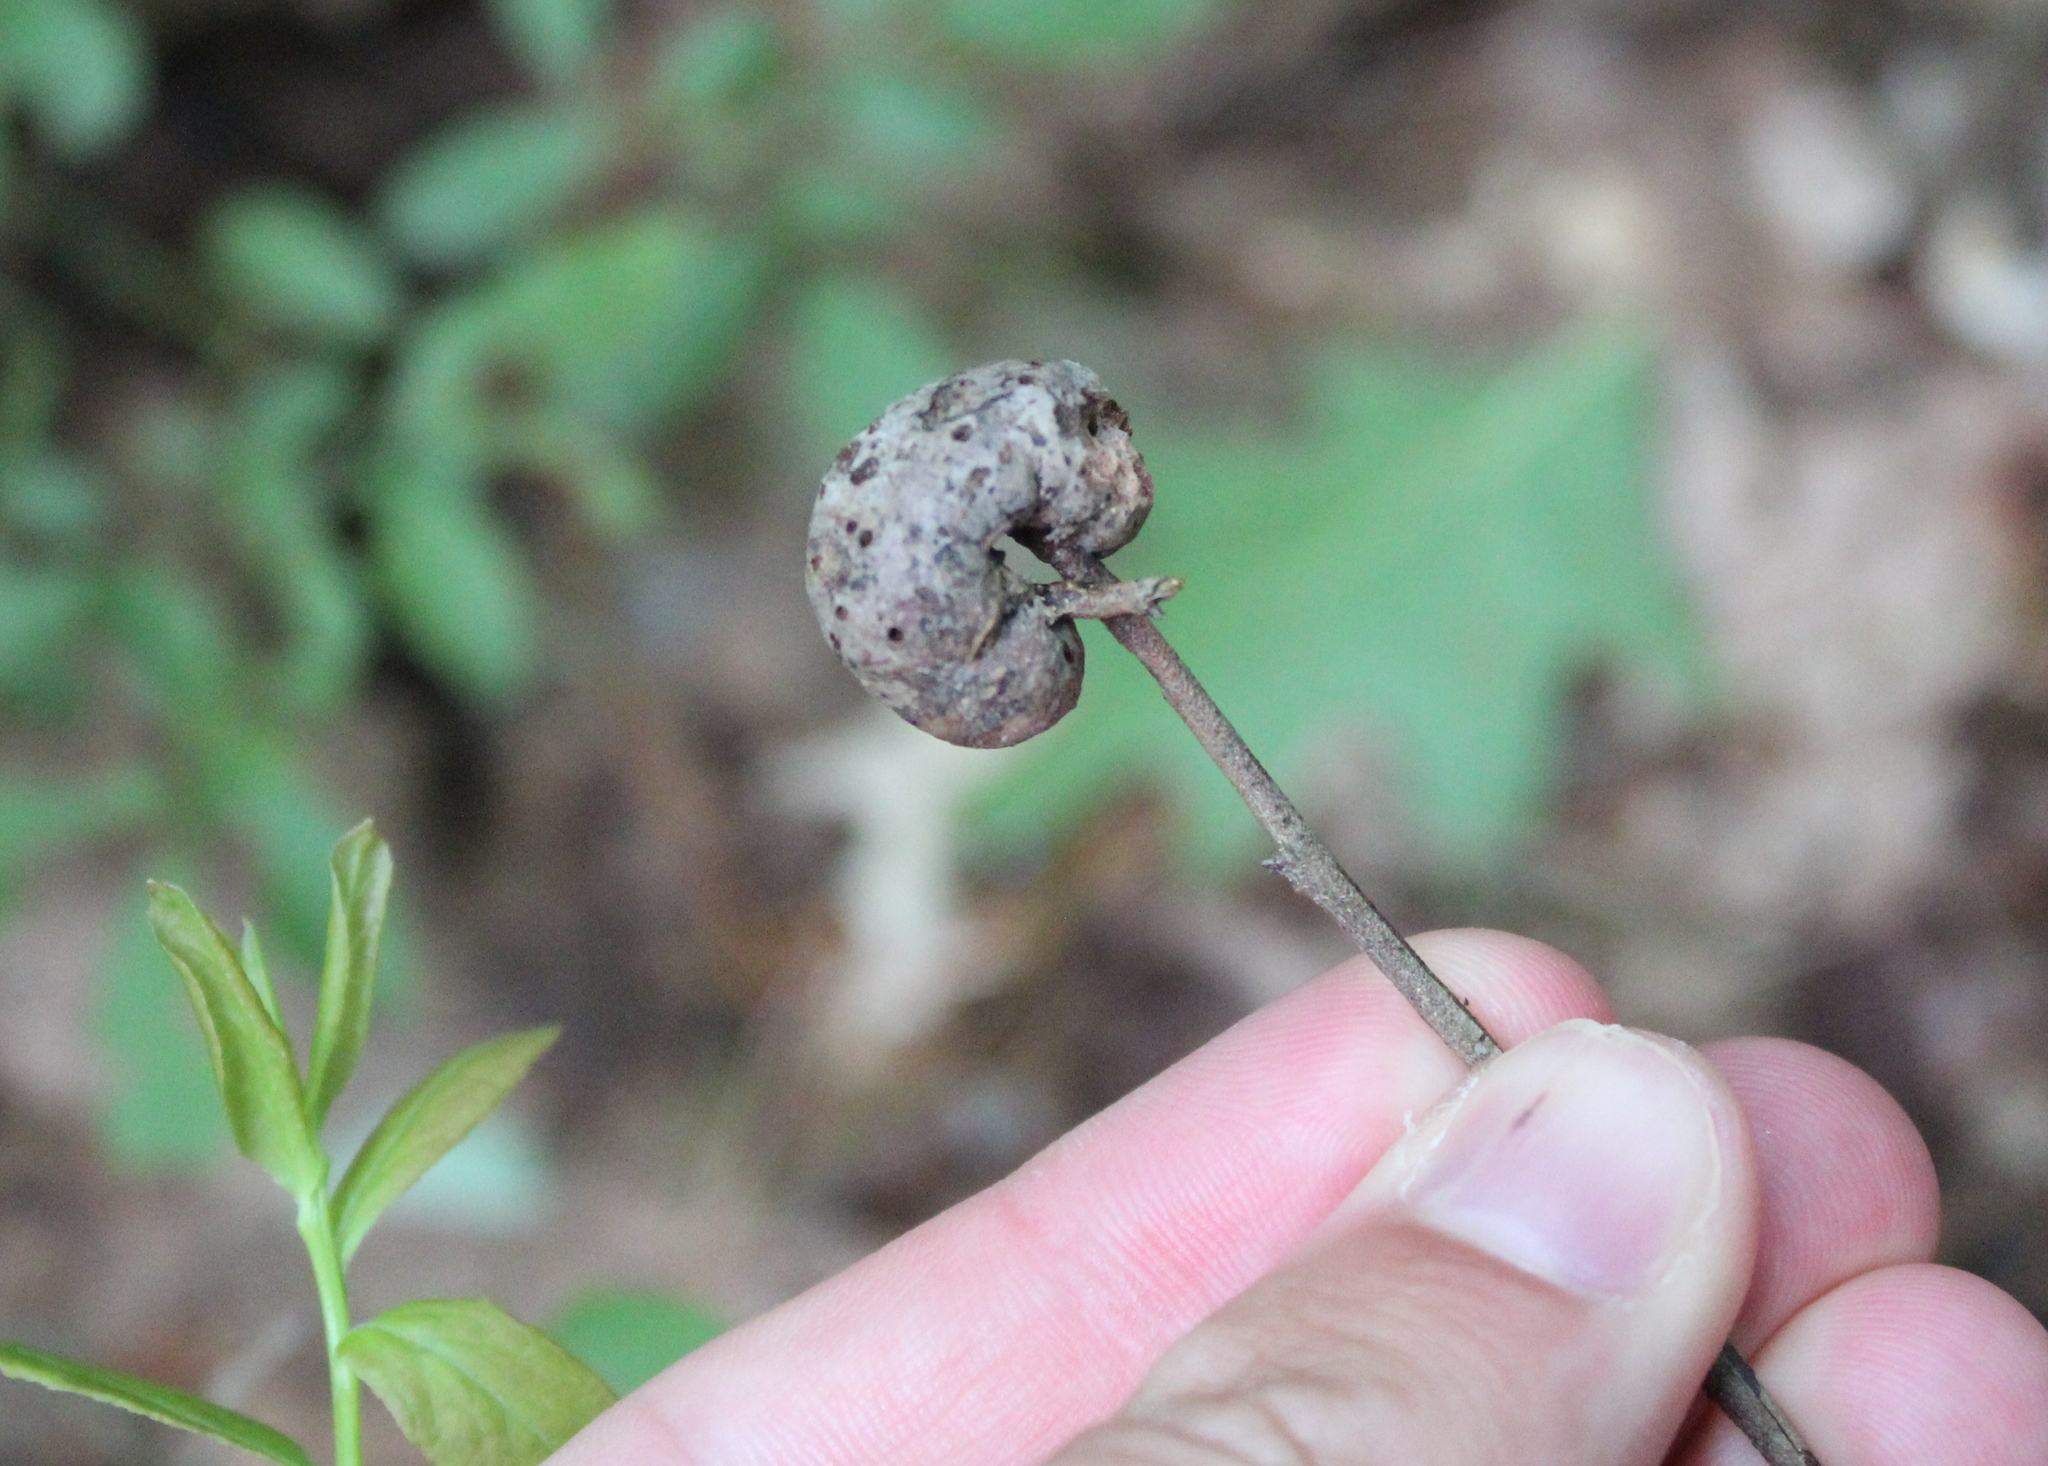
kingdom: Animalia
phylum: Arthropoda
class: Insecta
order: Hymenoptera
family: Pteromalidae
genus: Hemadas
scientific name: Hemadas nubilipennis
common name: Blueberry stem gall wasp
